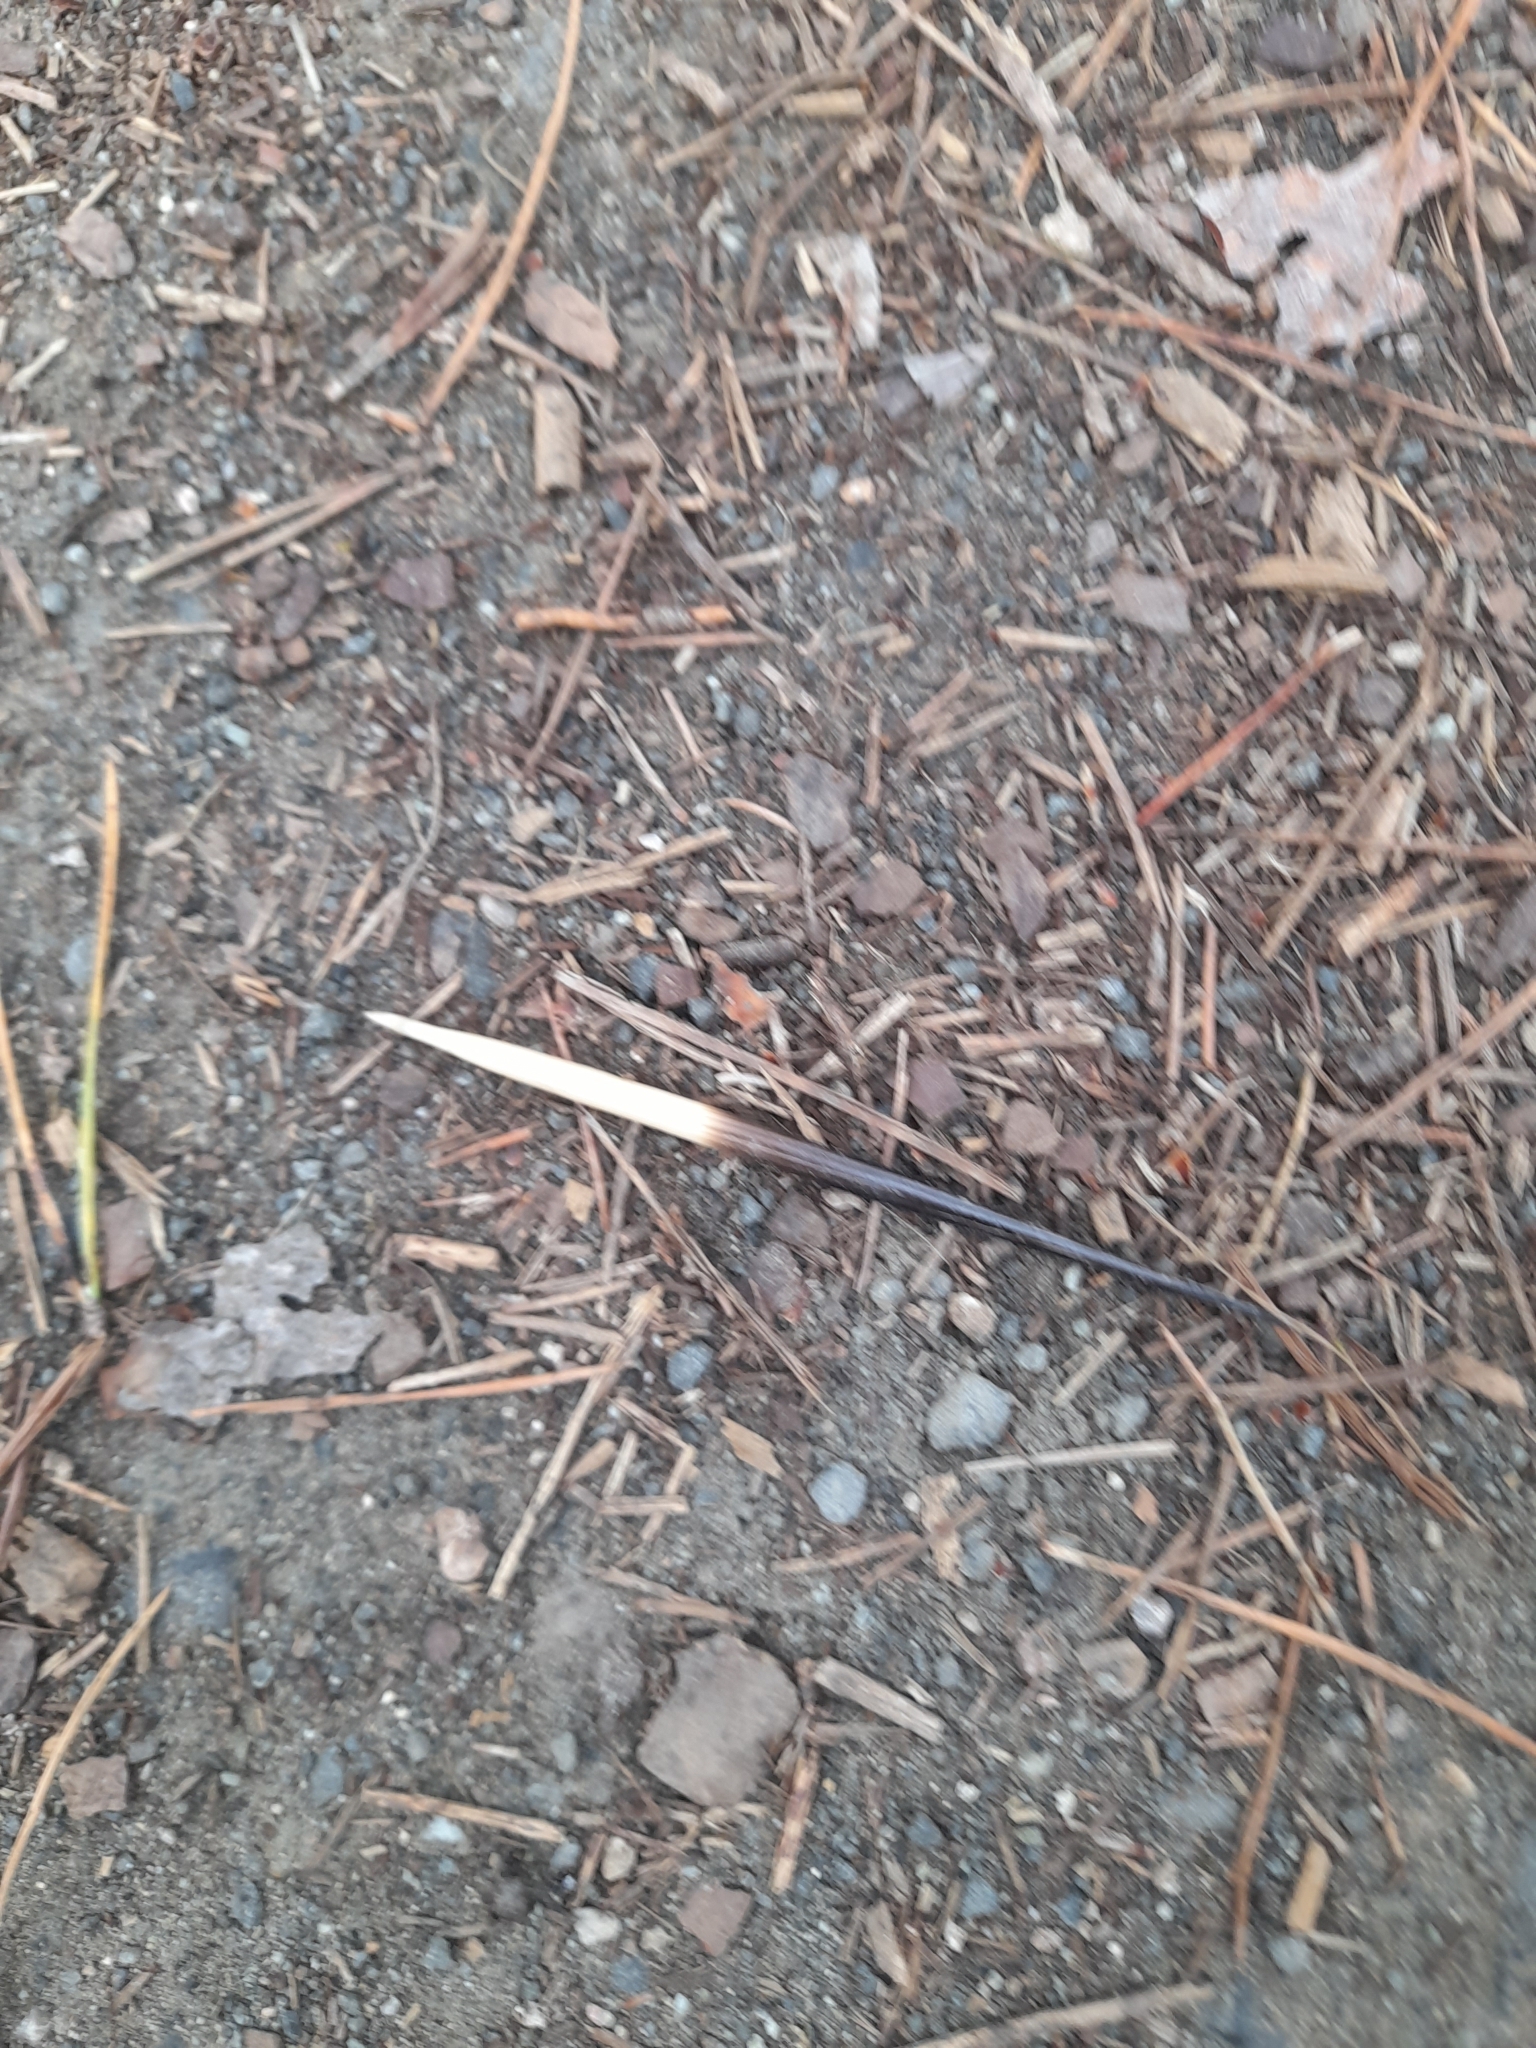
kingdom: Animalia
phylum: Chordata
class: Mammalia
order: Rodentia
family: Hystricidae
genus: Hystrix
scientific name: Hystrix cristata
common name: Crested porcupine
